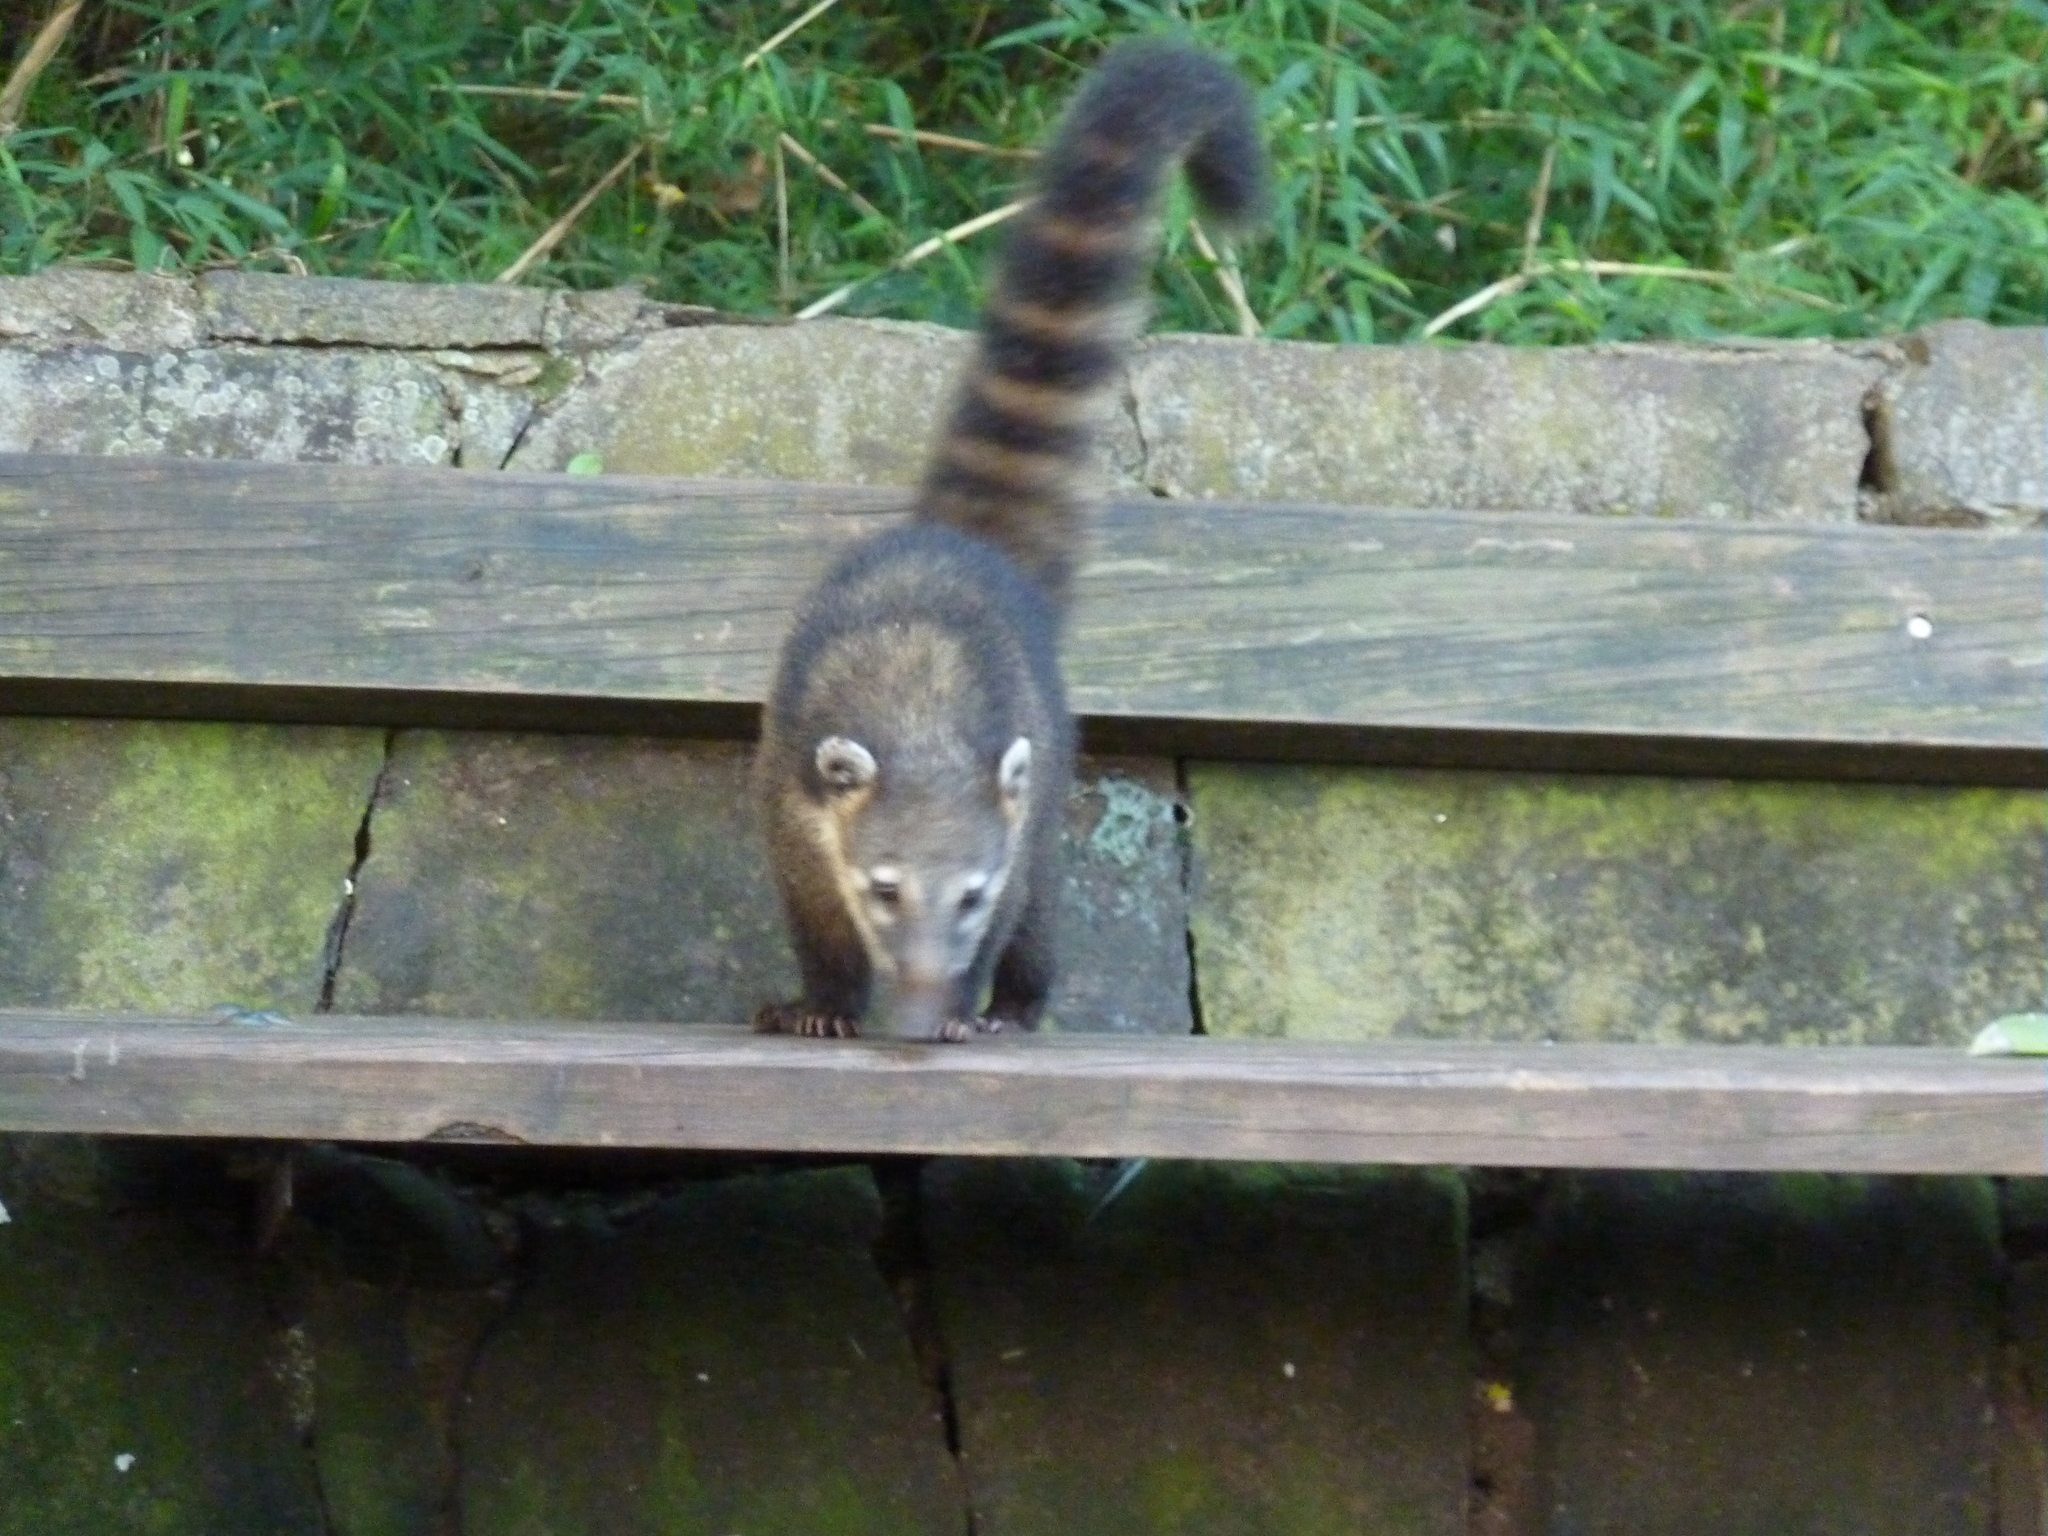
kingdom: Animalia
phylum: Chordata
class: Mammalia
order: Carnivora
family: Procyonidae
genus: Nasua
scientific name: Nasua nasua
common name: South american coati
